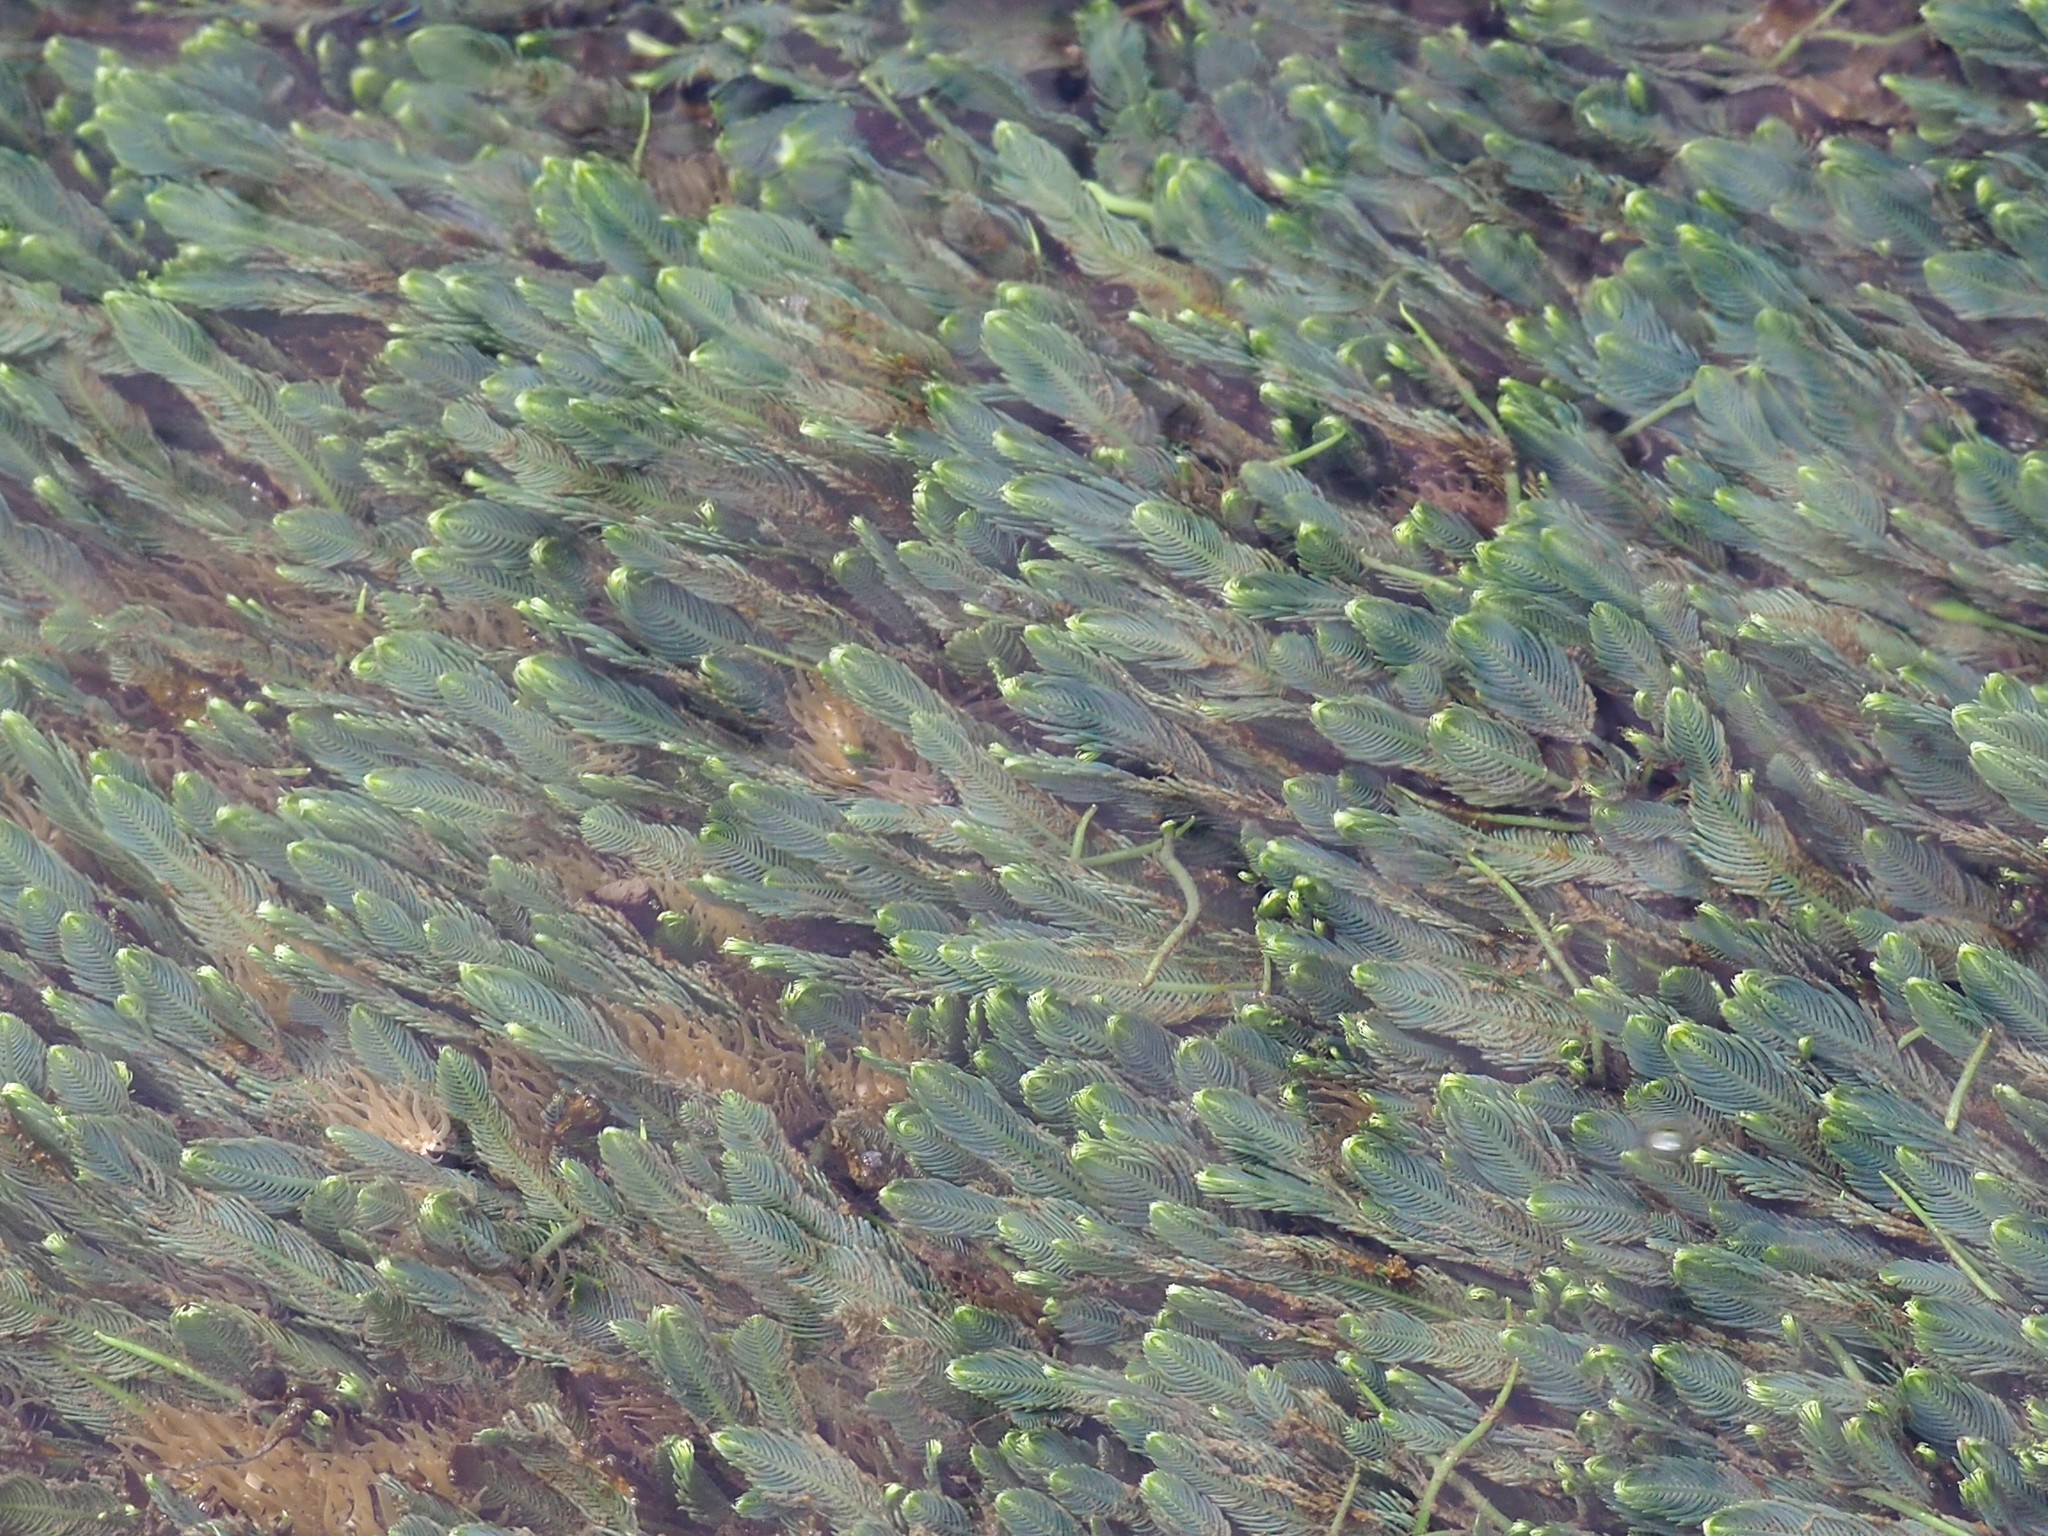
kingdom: Plantae
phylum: Chlorophyta
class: Ulvophyceae
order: Bryopsidales
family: Caulerpaceae
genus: Caulerpa
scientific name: Caulerpa sertularioides
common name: Green feather algae
